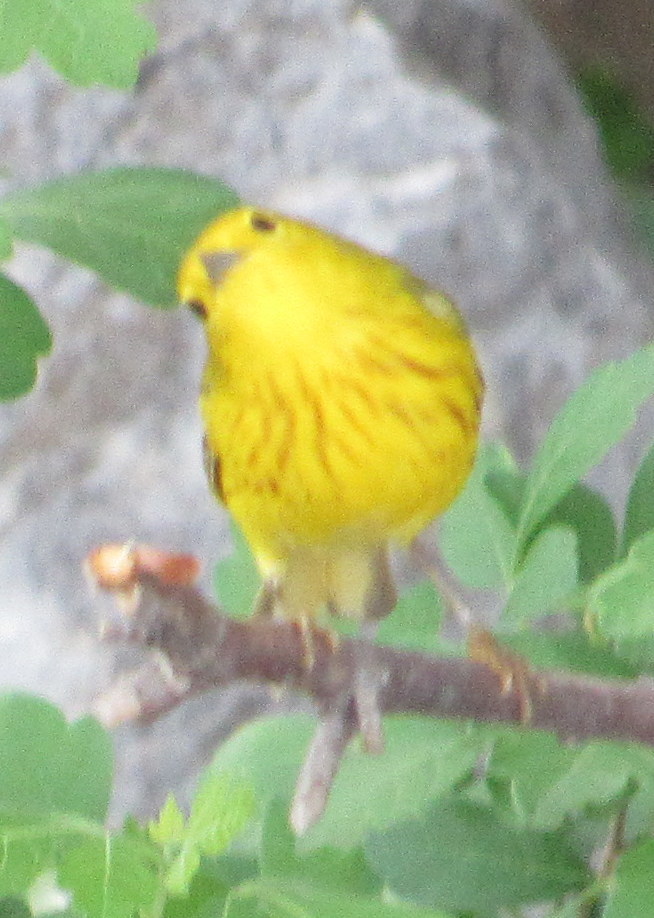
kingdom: Animalia
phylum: Chordata
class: Aves
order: Passeriformes
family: Parulidae
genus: Setophaga
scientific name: Setophaga petechia
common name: Yellow warbler
